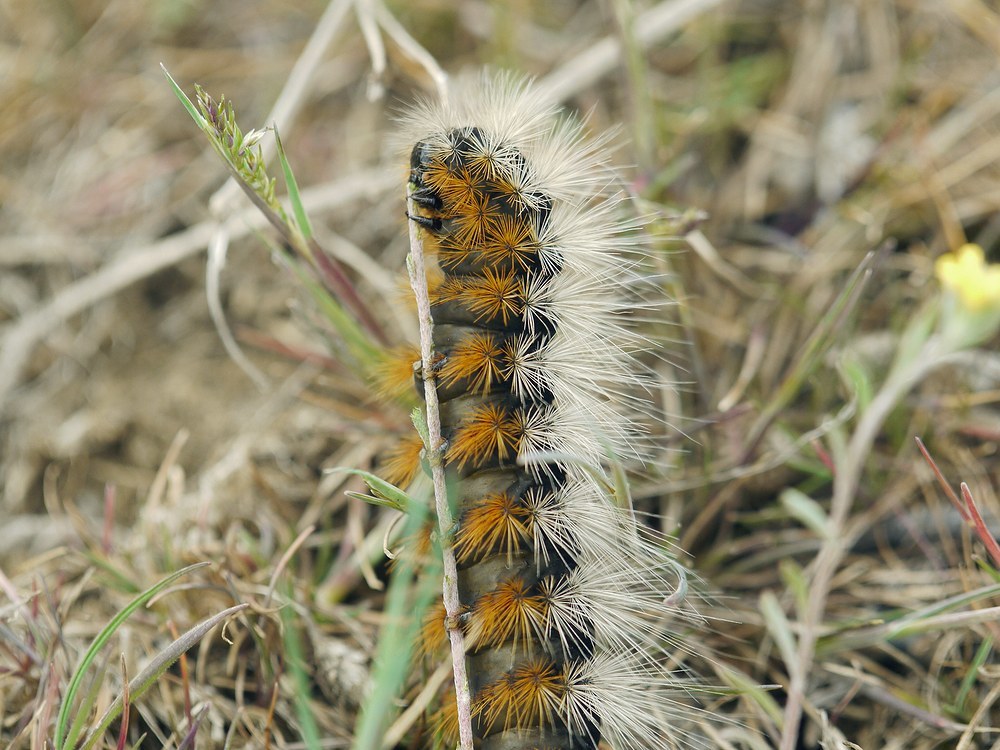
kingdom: Animalia
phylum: Arthropoda
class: Insecta
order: Lepidoptera
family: Erebidae
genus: Eucharia
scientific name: Eucharia festiva
